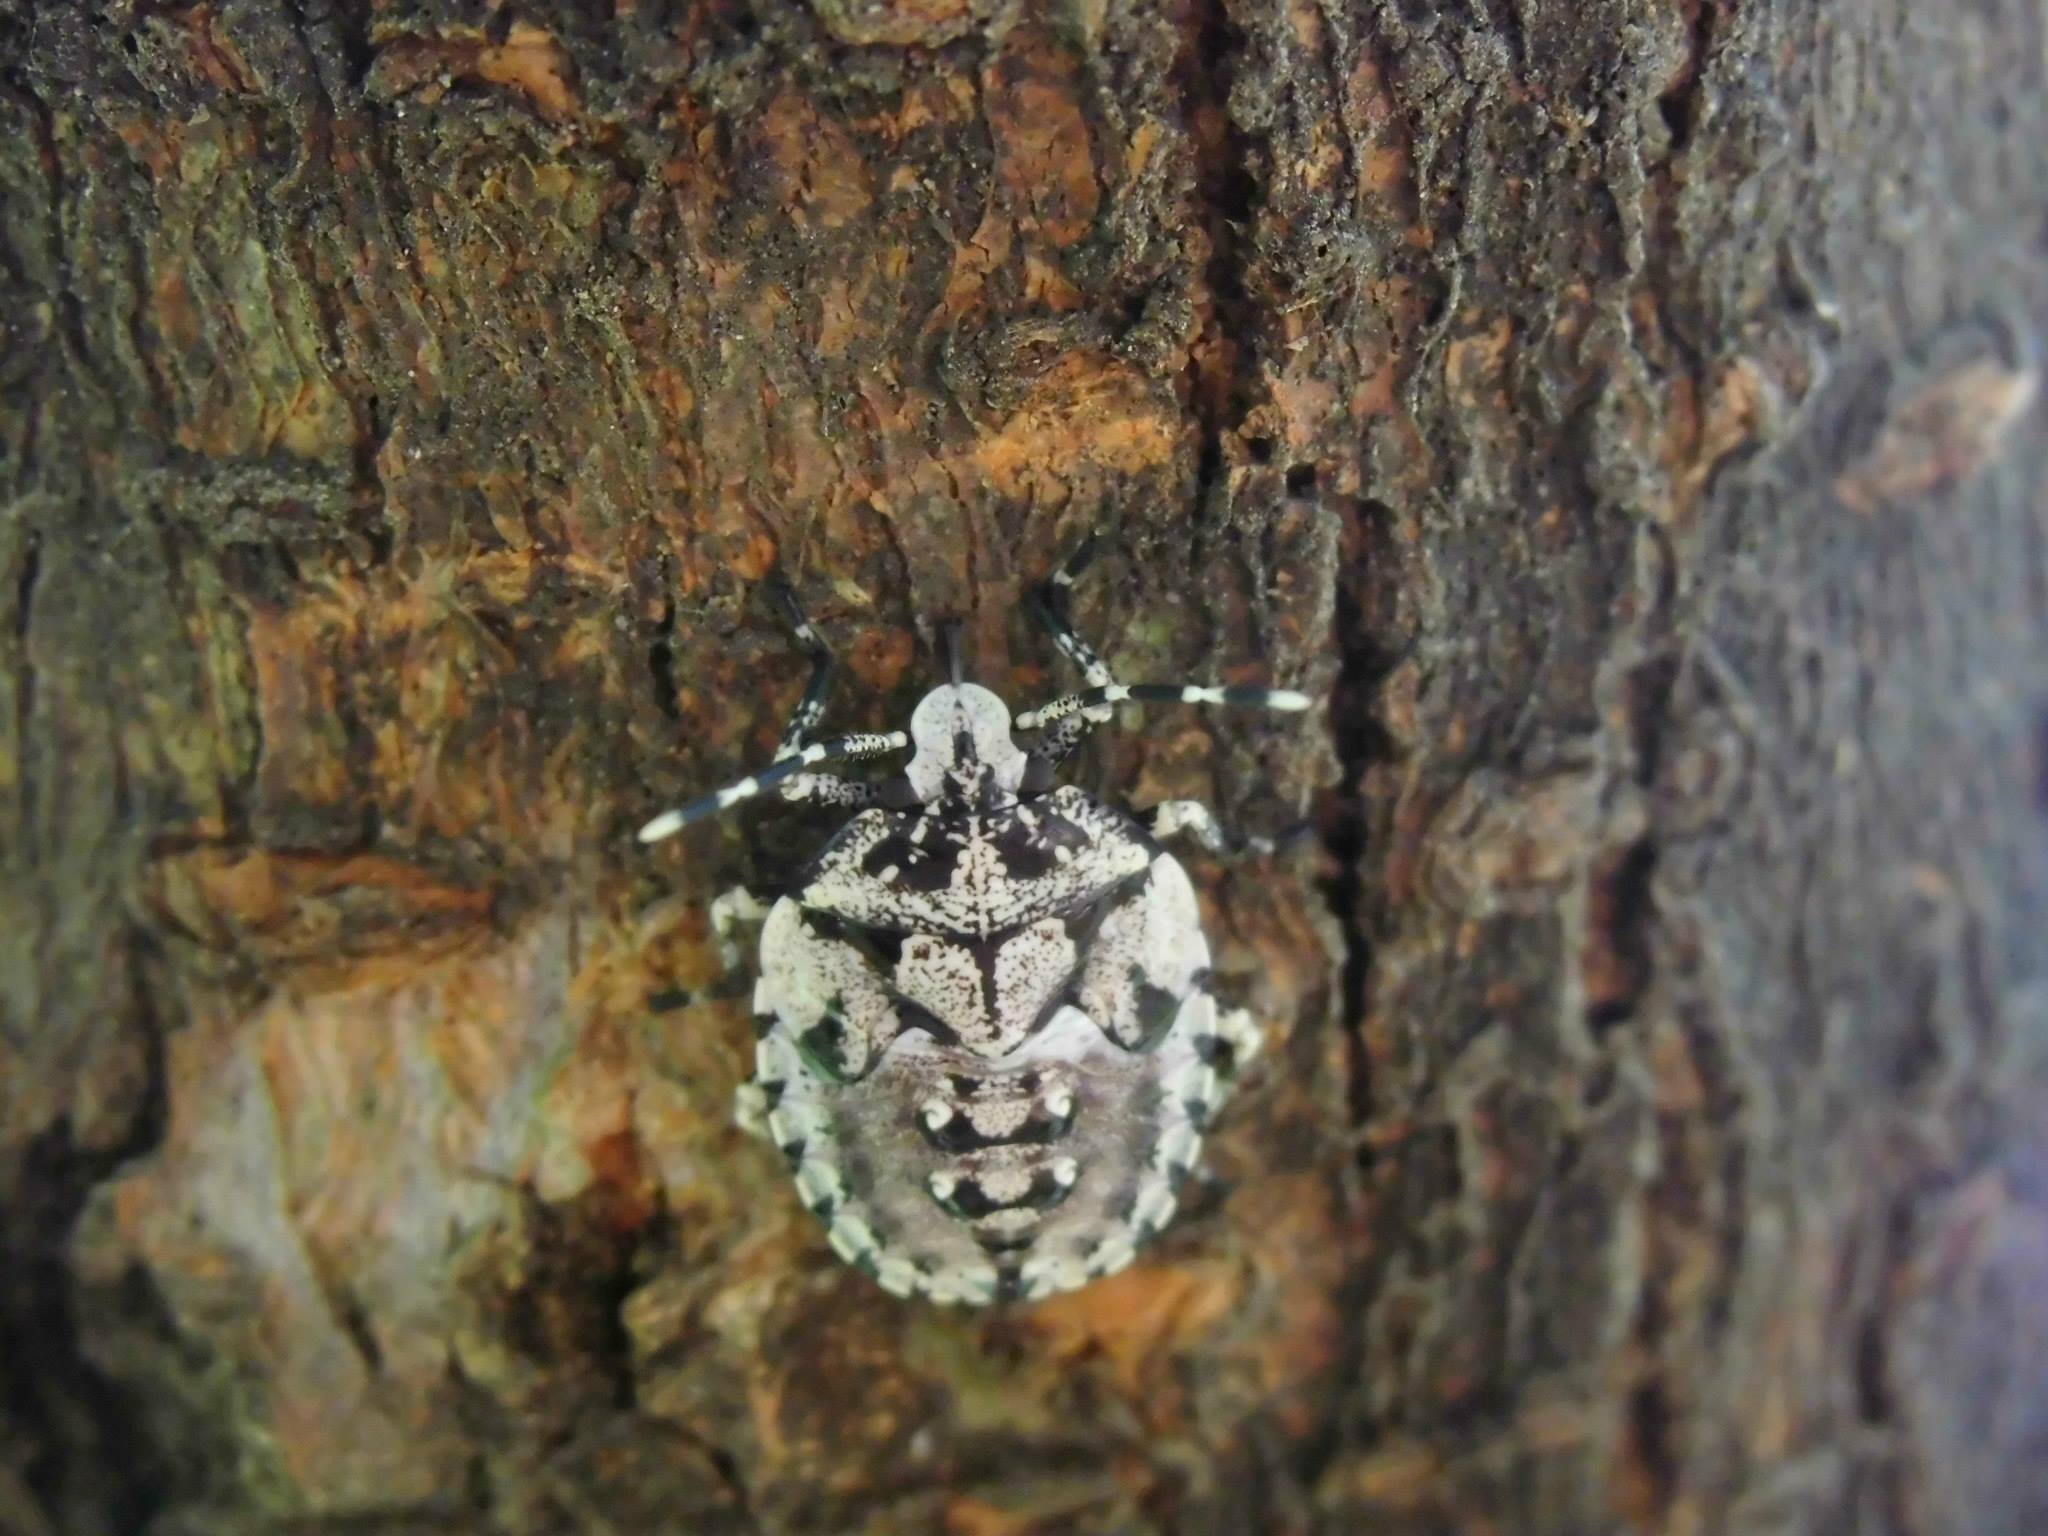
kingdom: Animalia
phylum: Arthropoda
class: Insecta
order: Hemiptera
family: Pentatomidae
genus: Antiteuchus
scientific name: Antiteuchus mixtus
